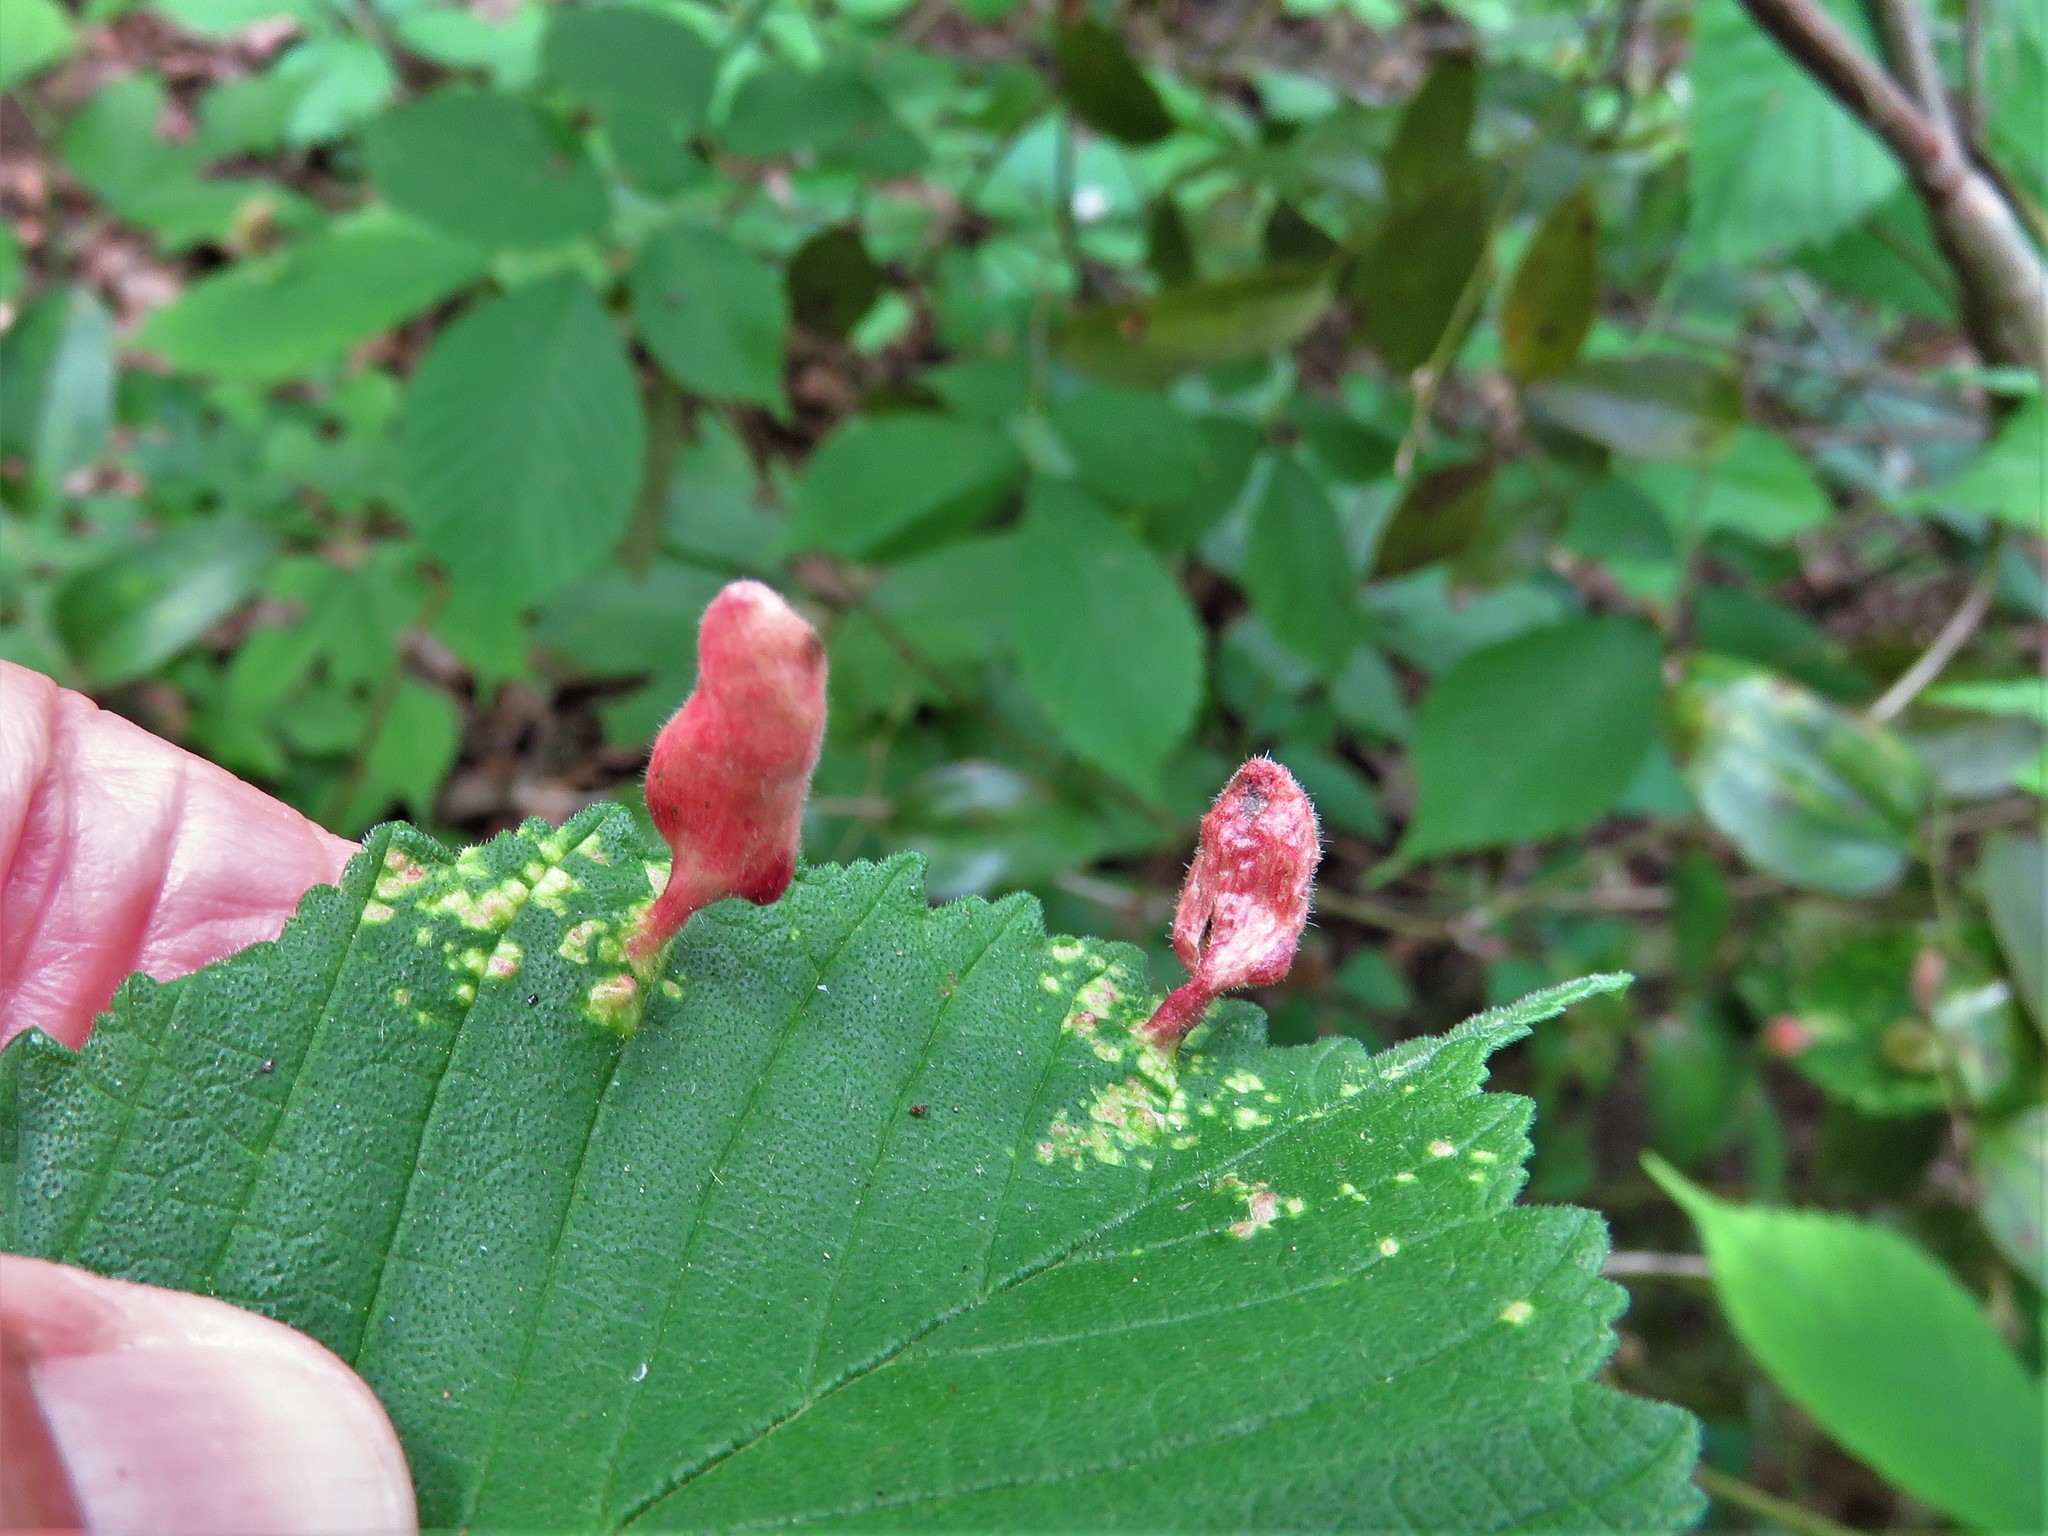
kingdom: Animalia
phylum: Arthropoda
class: Insecta
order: Hemiptera
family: Aphididae
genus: Tetraneura
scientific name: Tetraneura nigriabdominalis
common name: Aphid
